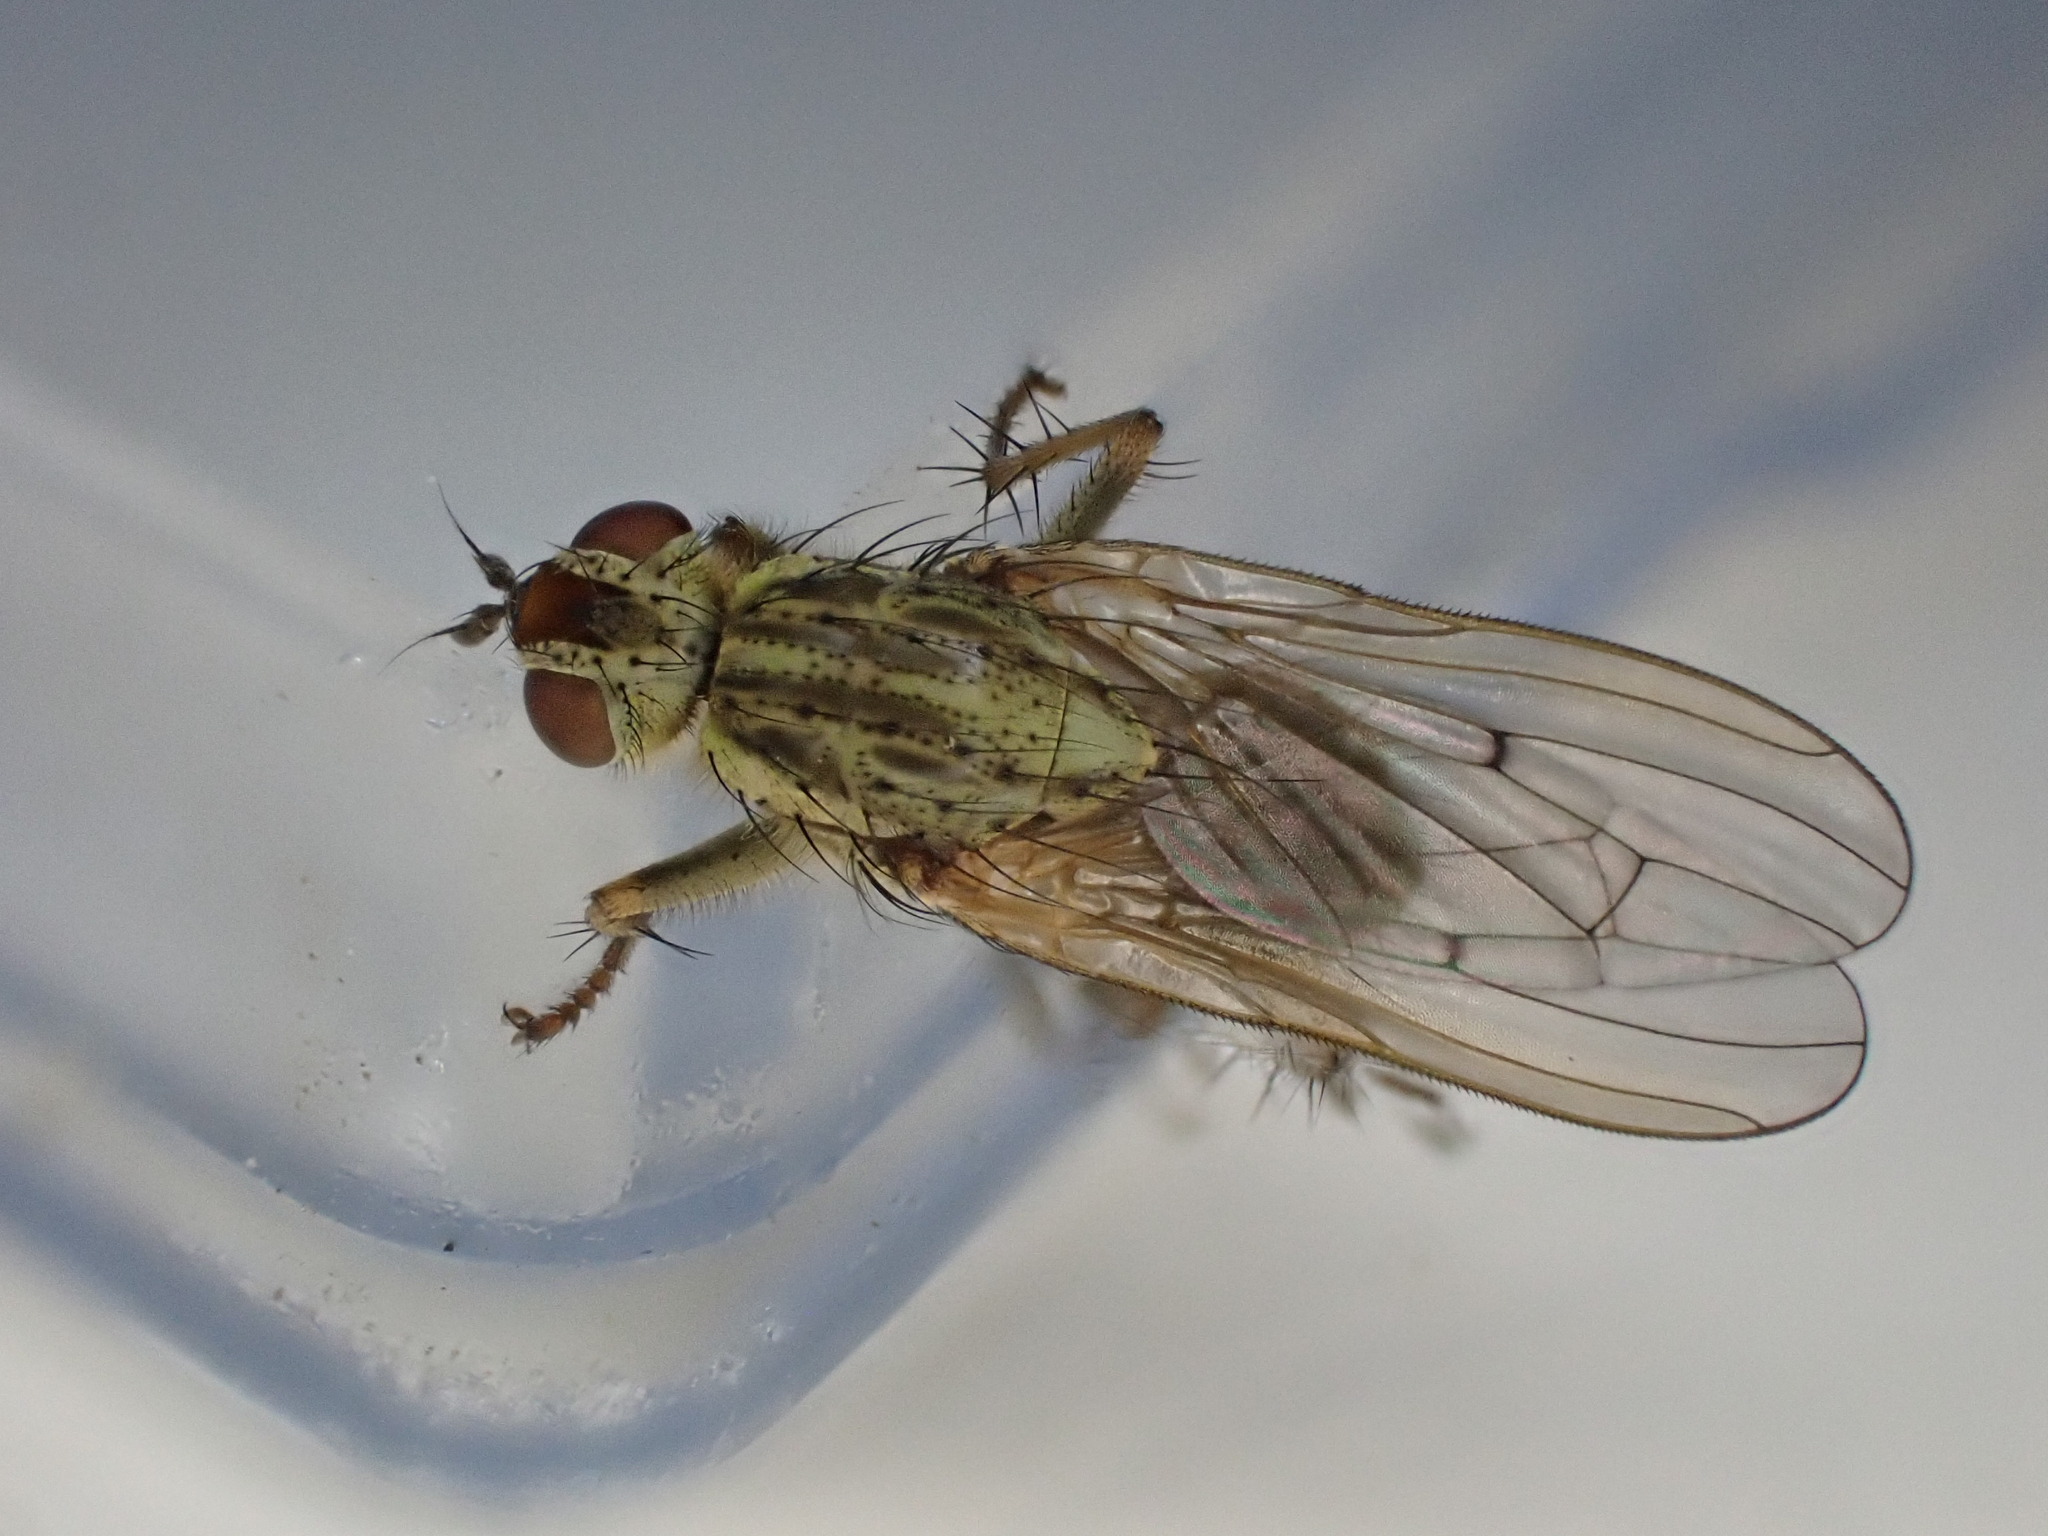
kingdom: Animalia
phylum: Arthropoda
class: Insecta
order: Diptera
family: Scathophagidae
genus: Scathophaga
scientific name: Scathophaga stercoraria
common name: Yellow dung fly
